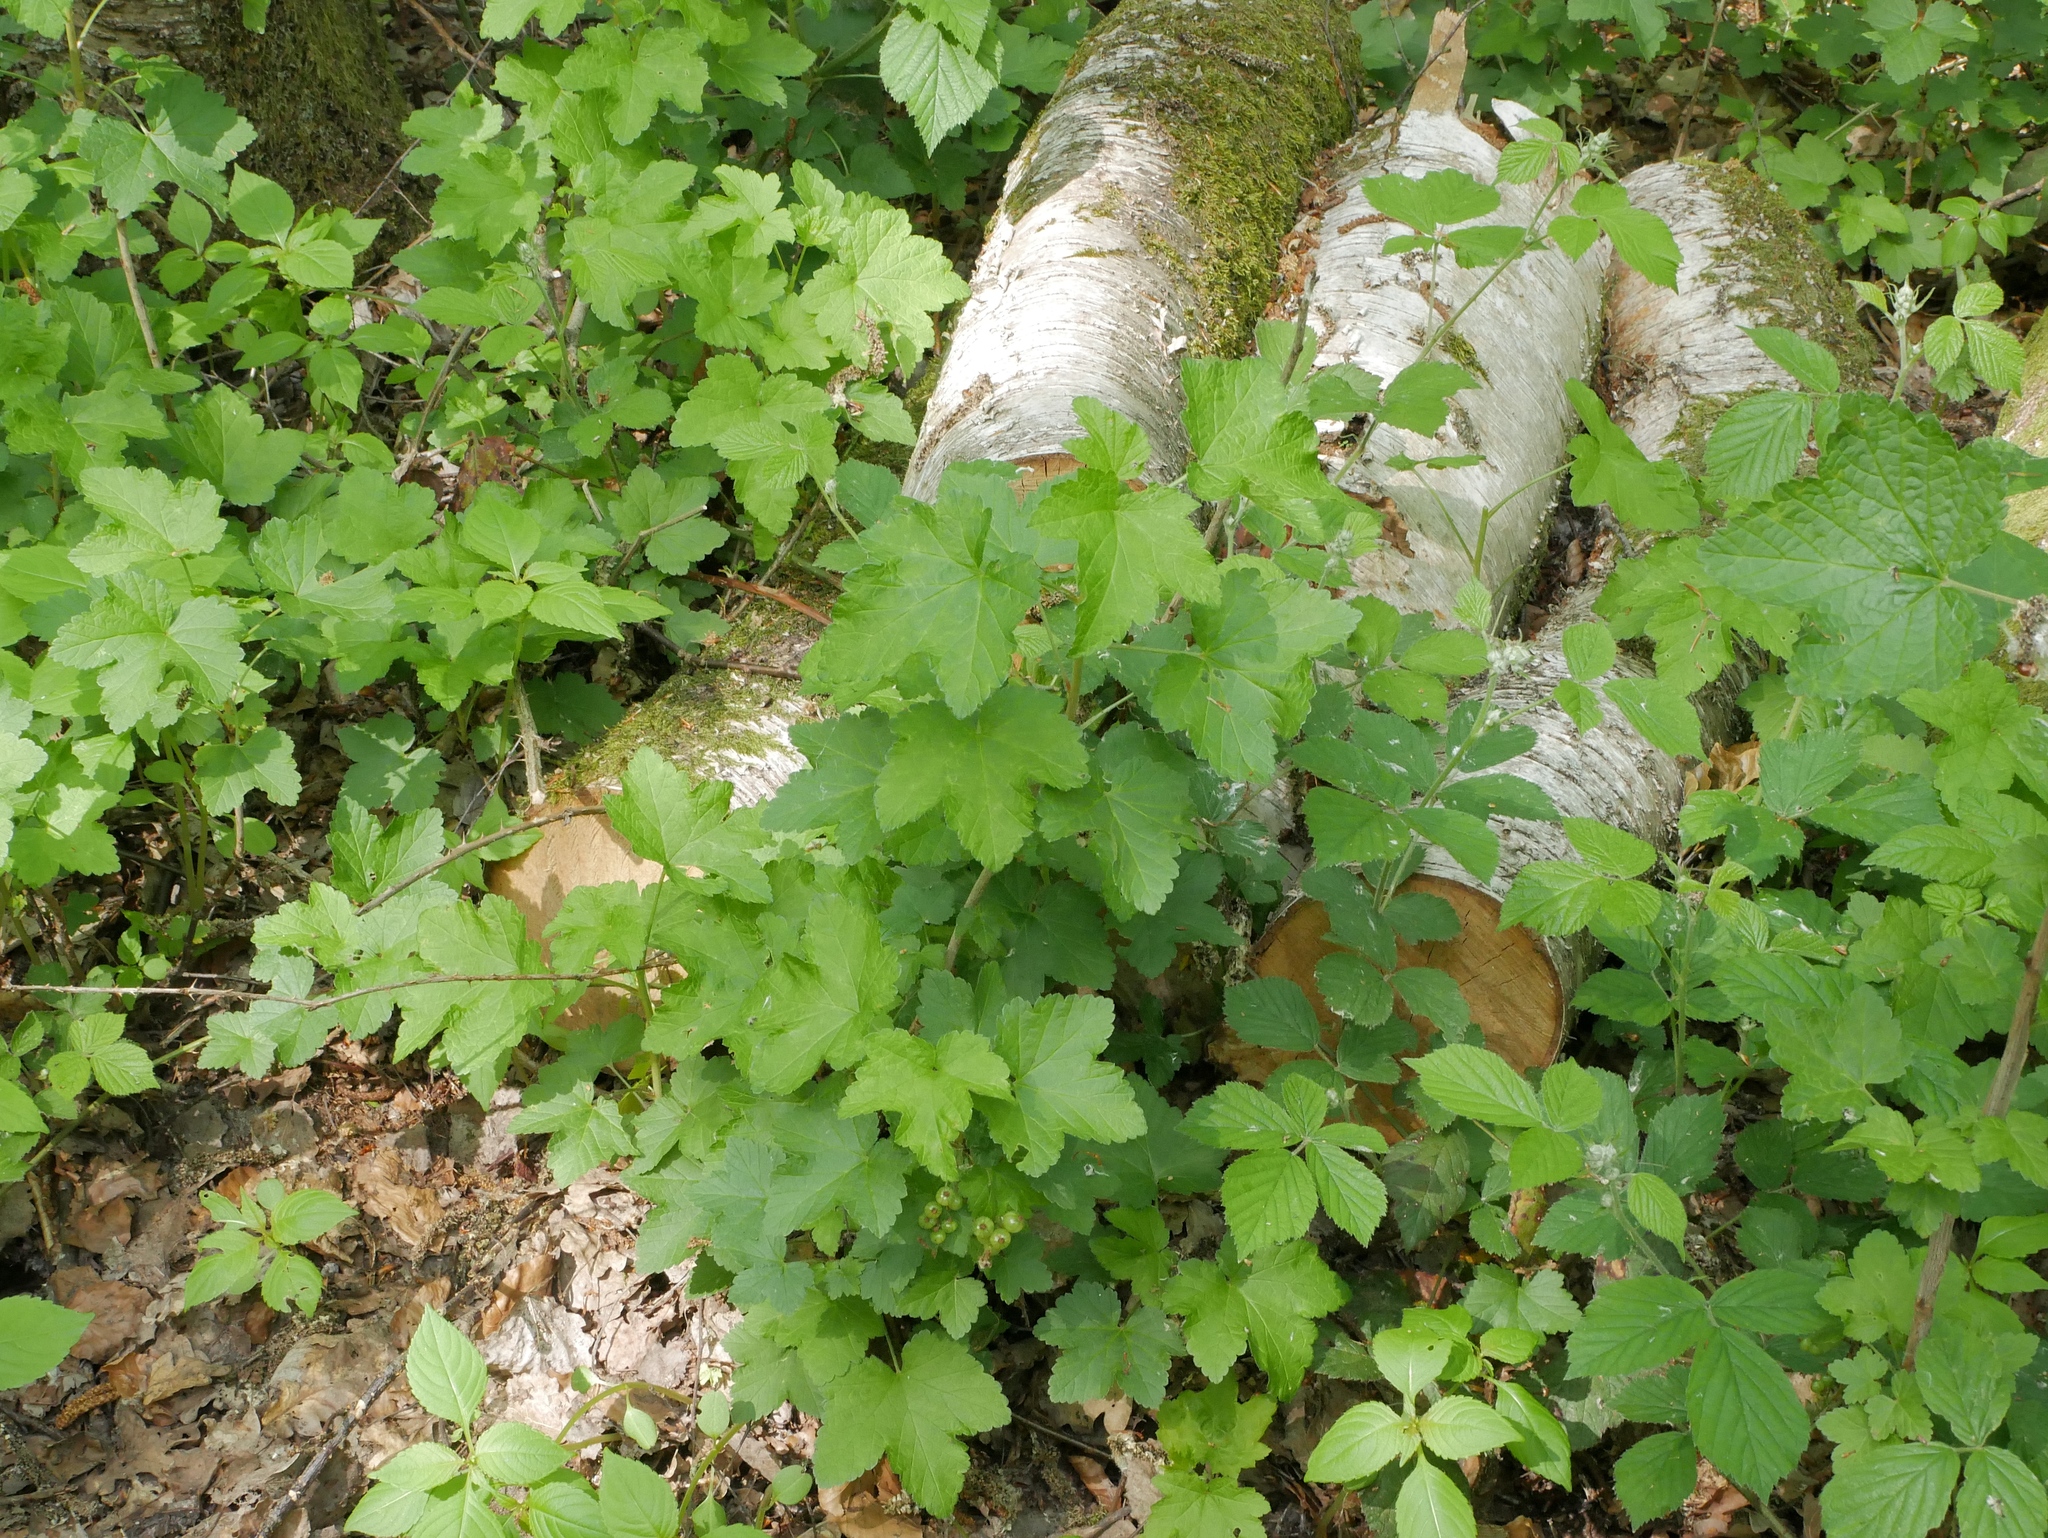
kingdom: Plantae
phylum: Tracheophyta
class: Magnoliopsida
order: Saxifragales
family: Grossulariaceae
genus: Ribes
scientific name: Ribes rubrum
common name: Red currant
